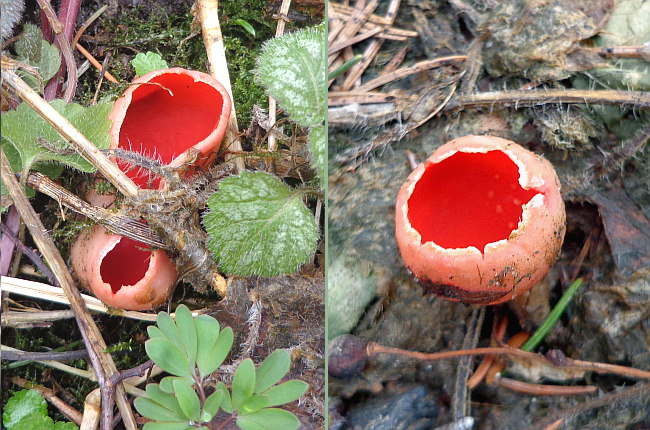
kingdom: Fungi
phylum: Ascomycota
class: Pezizomycetes
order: Pezizales
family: Sarcoscyphaceae
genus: Sarcoscypha
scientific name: Sarcoscypha austriaca
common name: Scarlet elfcup
